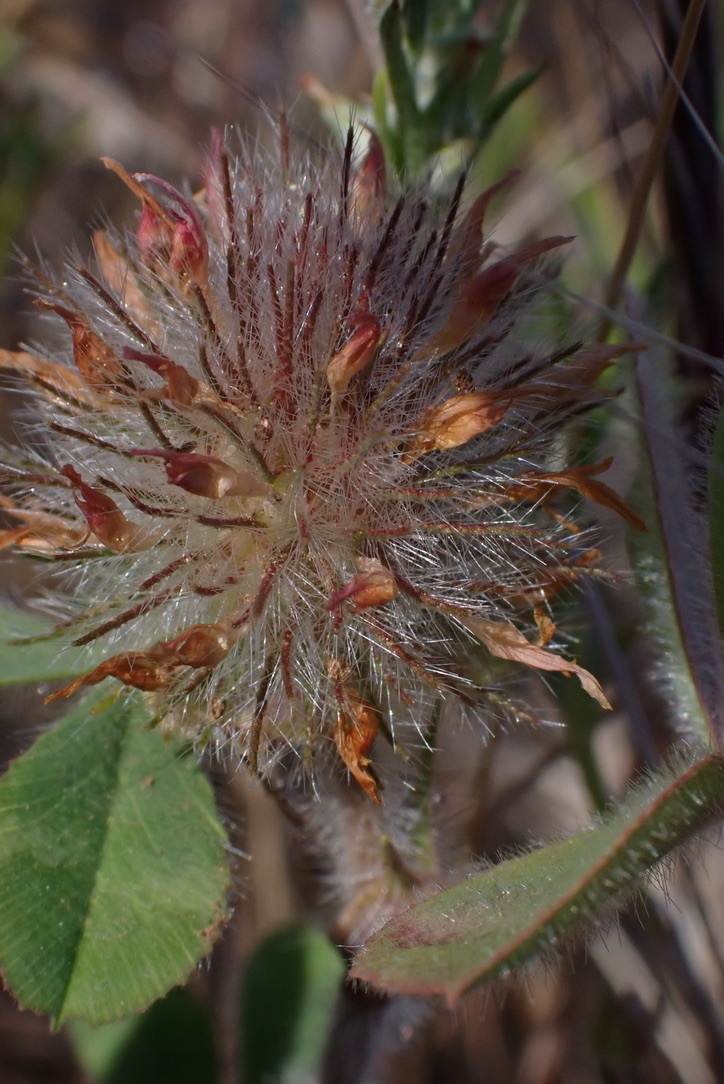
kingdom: Plantae
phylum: Tracheophyta
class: Magnoliopsida
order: Fabales
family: Fabaceae
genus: Trifolium
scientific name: Trifolium hirtum
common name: Rose clover
